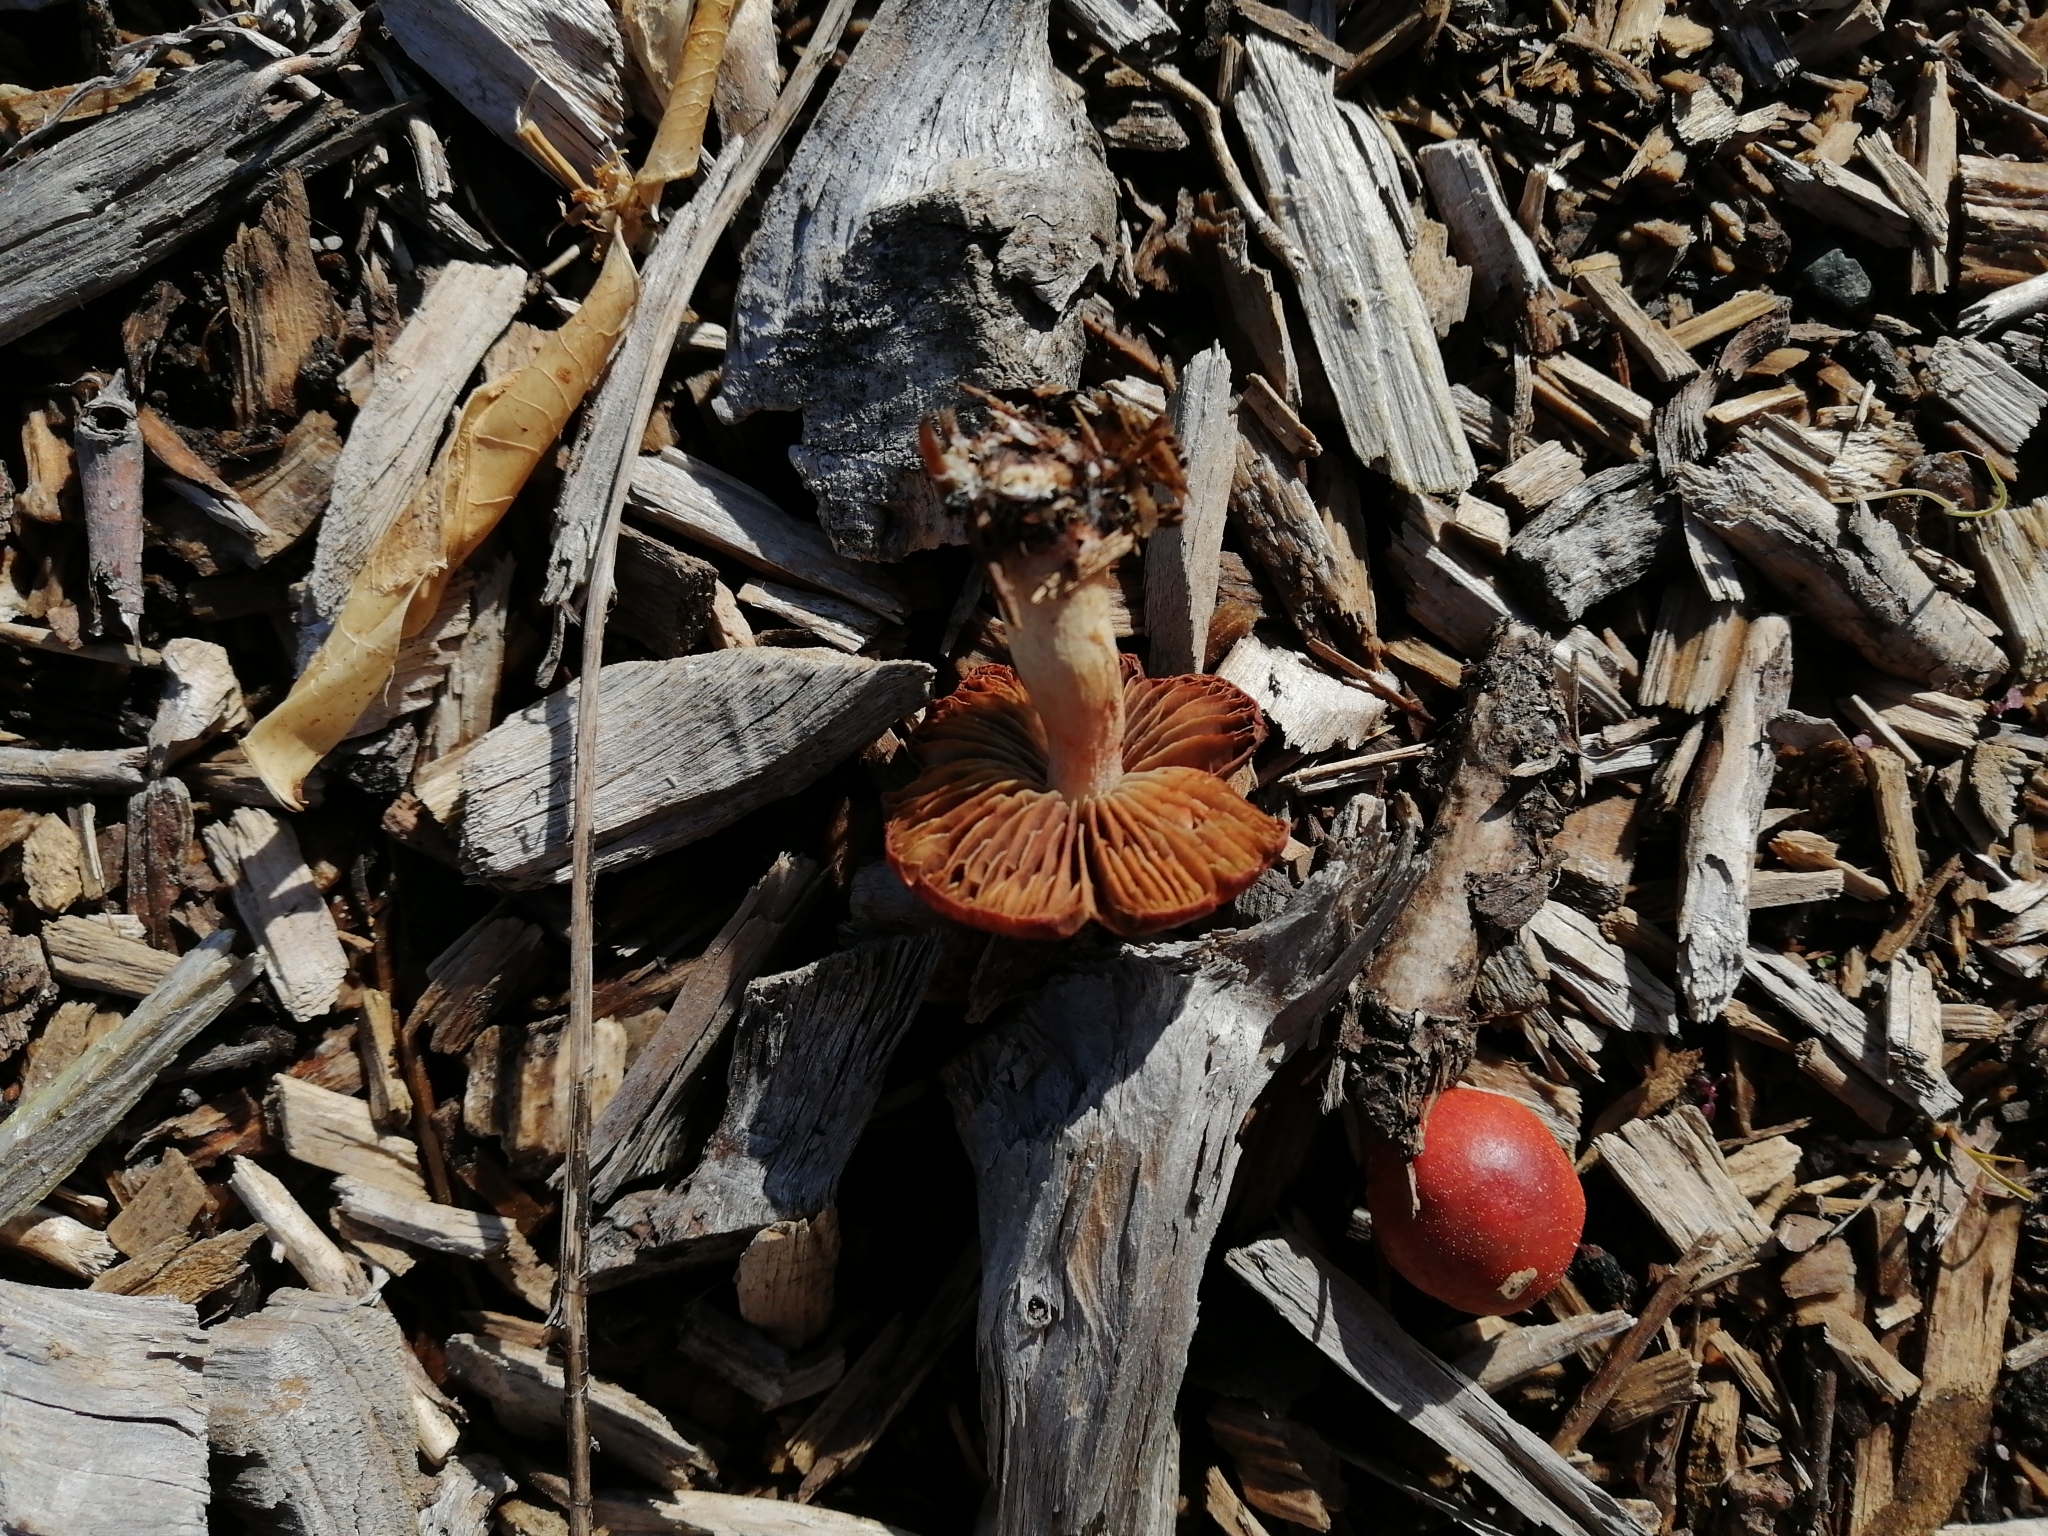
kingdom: Fungi
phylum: Basidiomycota
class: Agaricomycetes
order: Agaricales
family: Strophariaceae
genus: Leratiomyces
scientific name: Leratiomyces ceres
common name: Redlead roundhead
